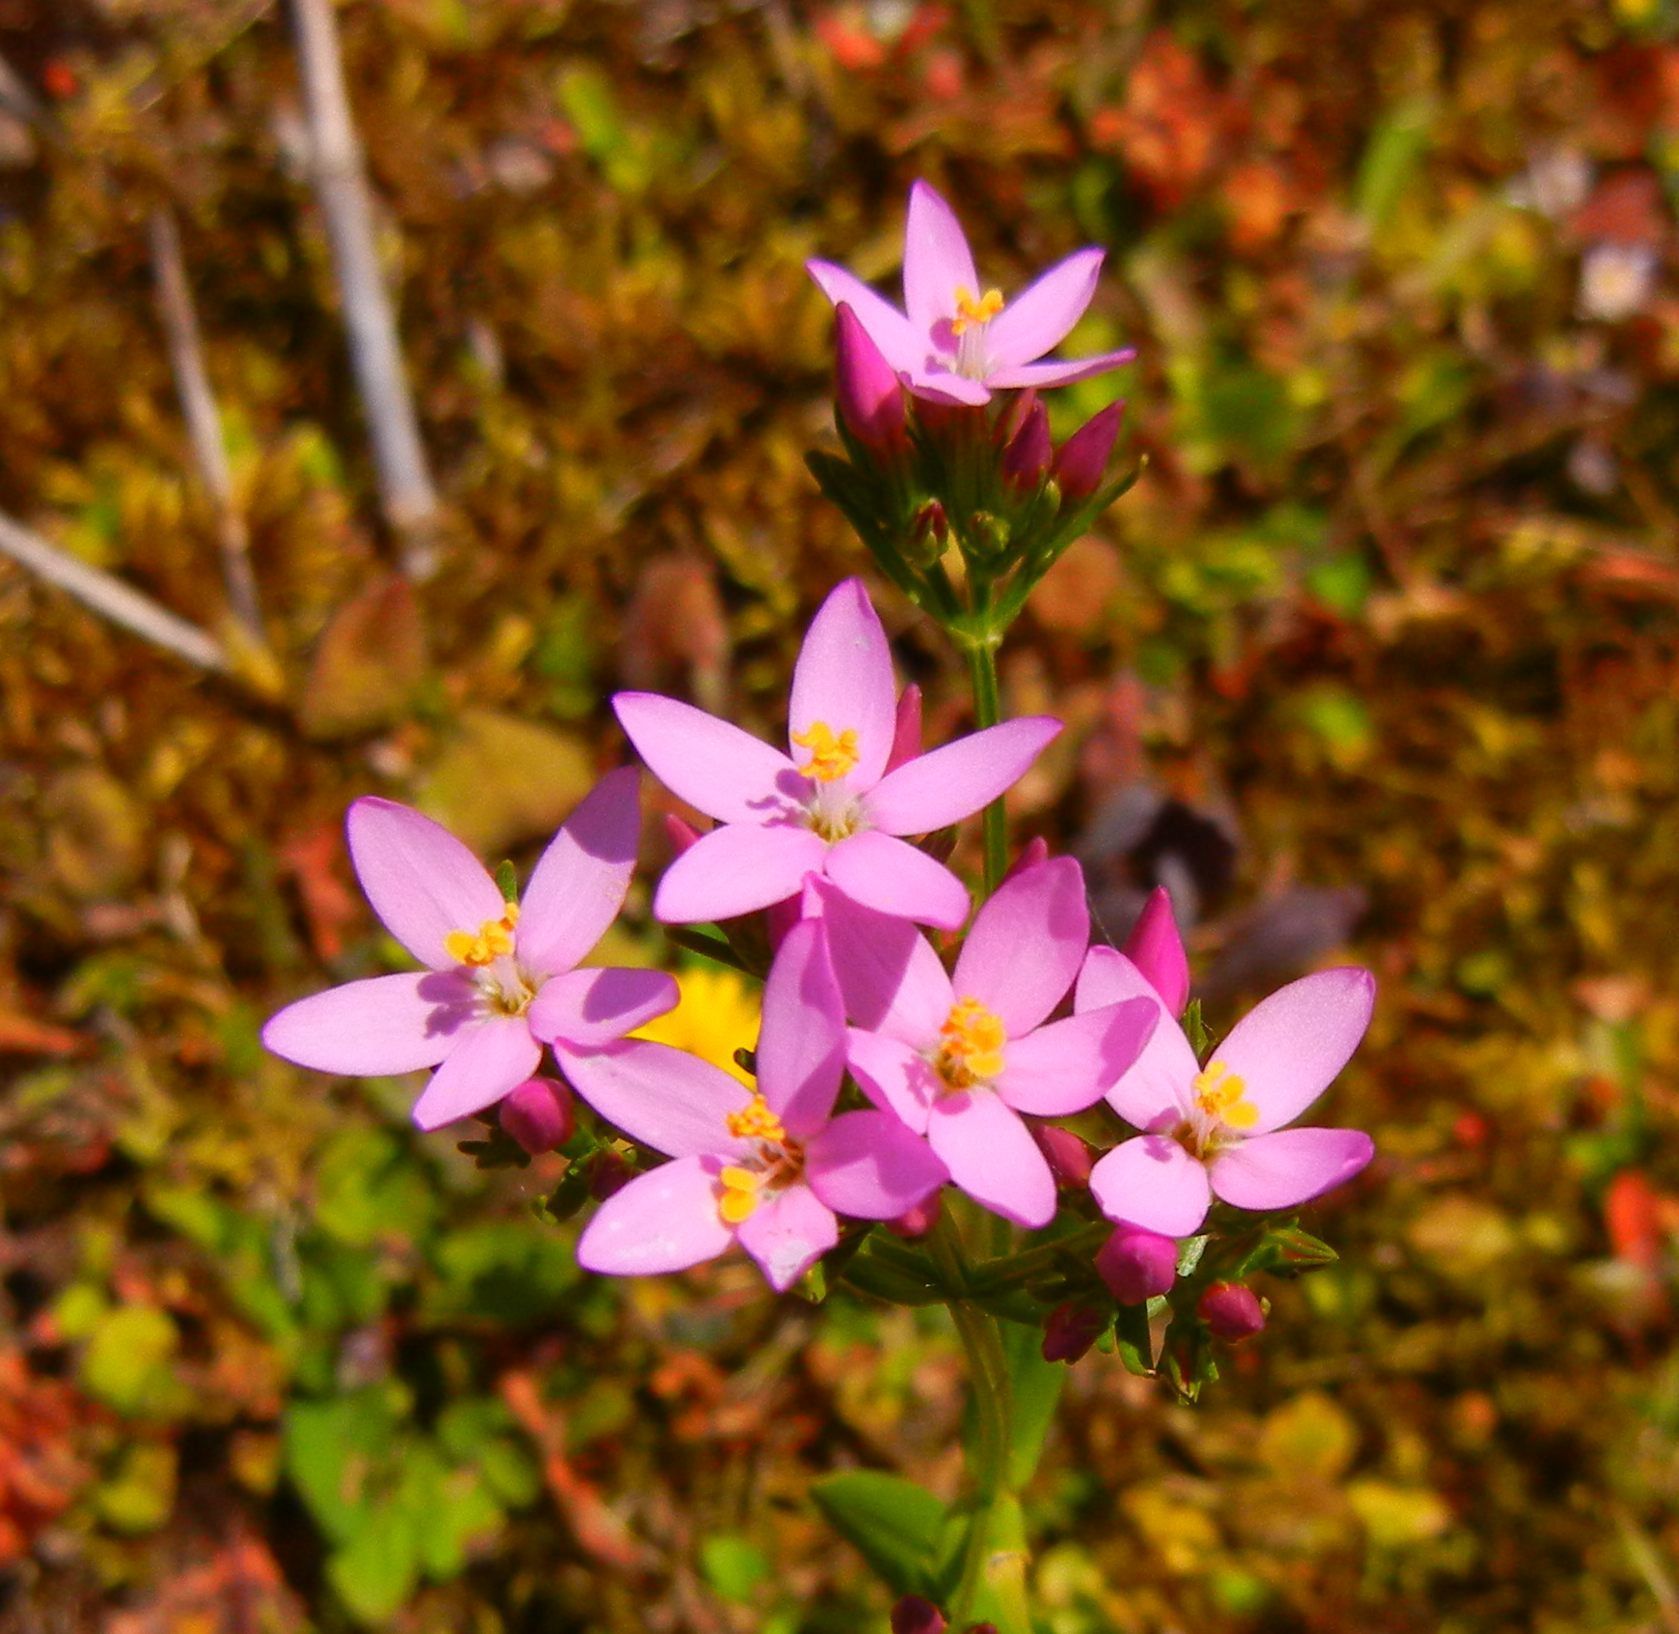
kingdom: Plantae
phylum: Tracheophyta
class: Magnoliopsida
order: Gentianales
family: Gentianaceae
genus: Centaurium
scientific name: Centaurium erythraea
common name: Common centaury
